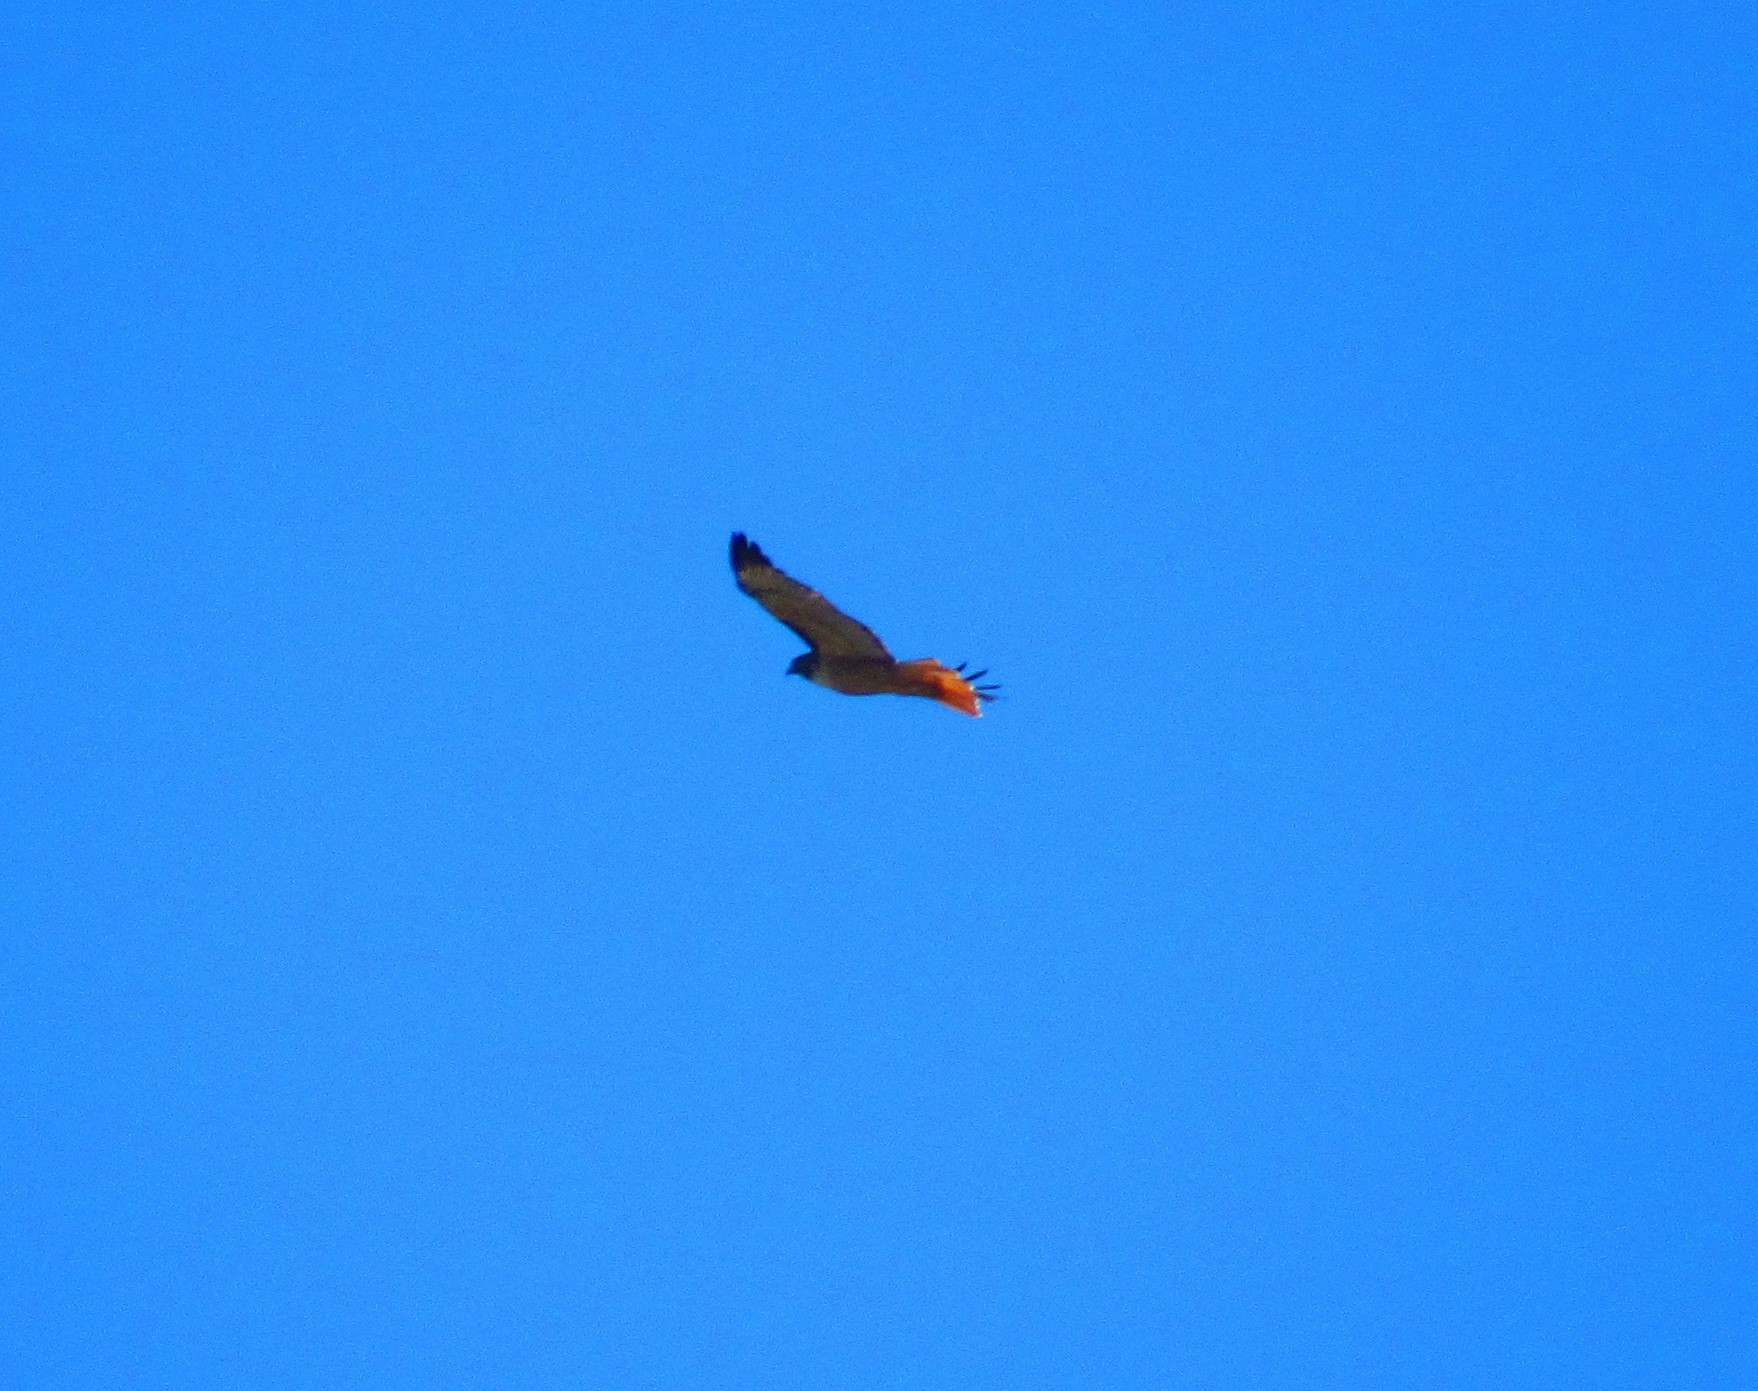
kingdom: Animalia
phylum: Chordata
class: Aves
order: Accipitriformes
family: Accipitridae
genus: Buteo
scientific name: Buteo jamaicensis
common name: Red-tailed hawk
